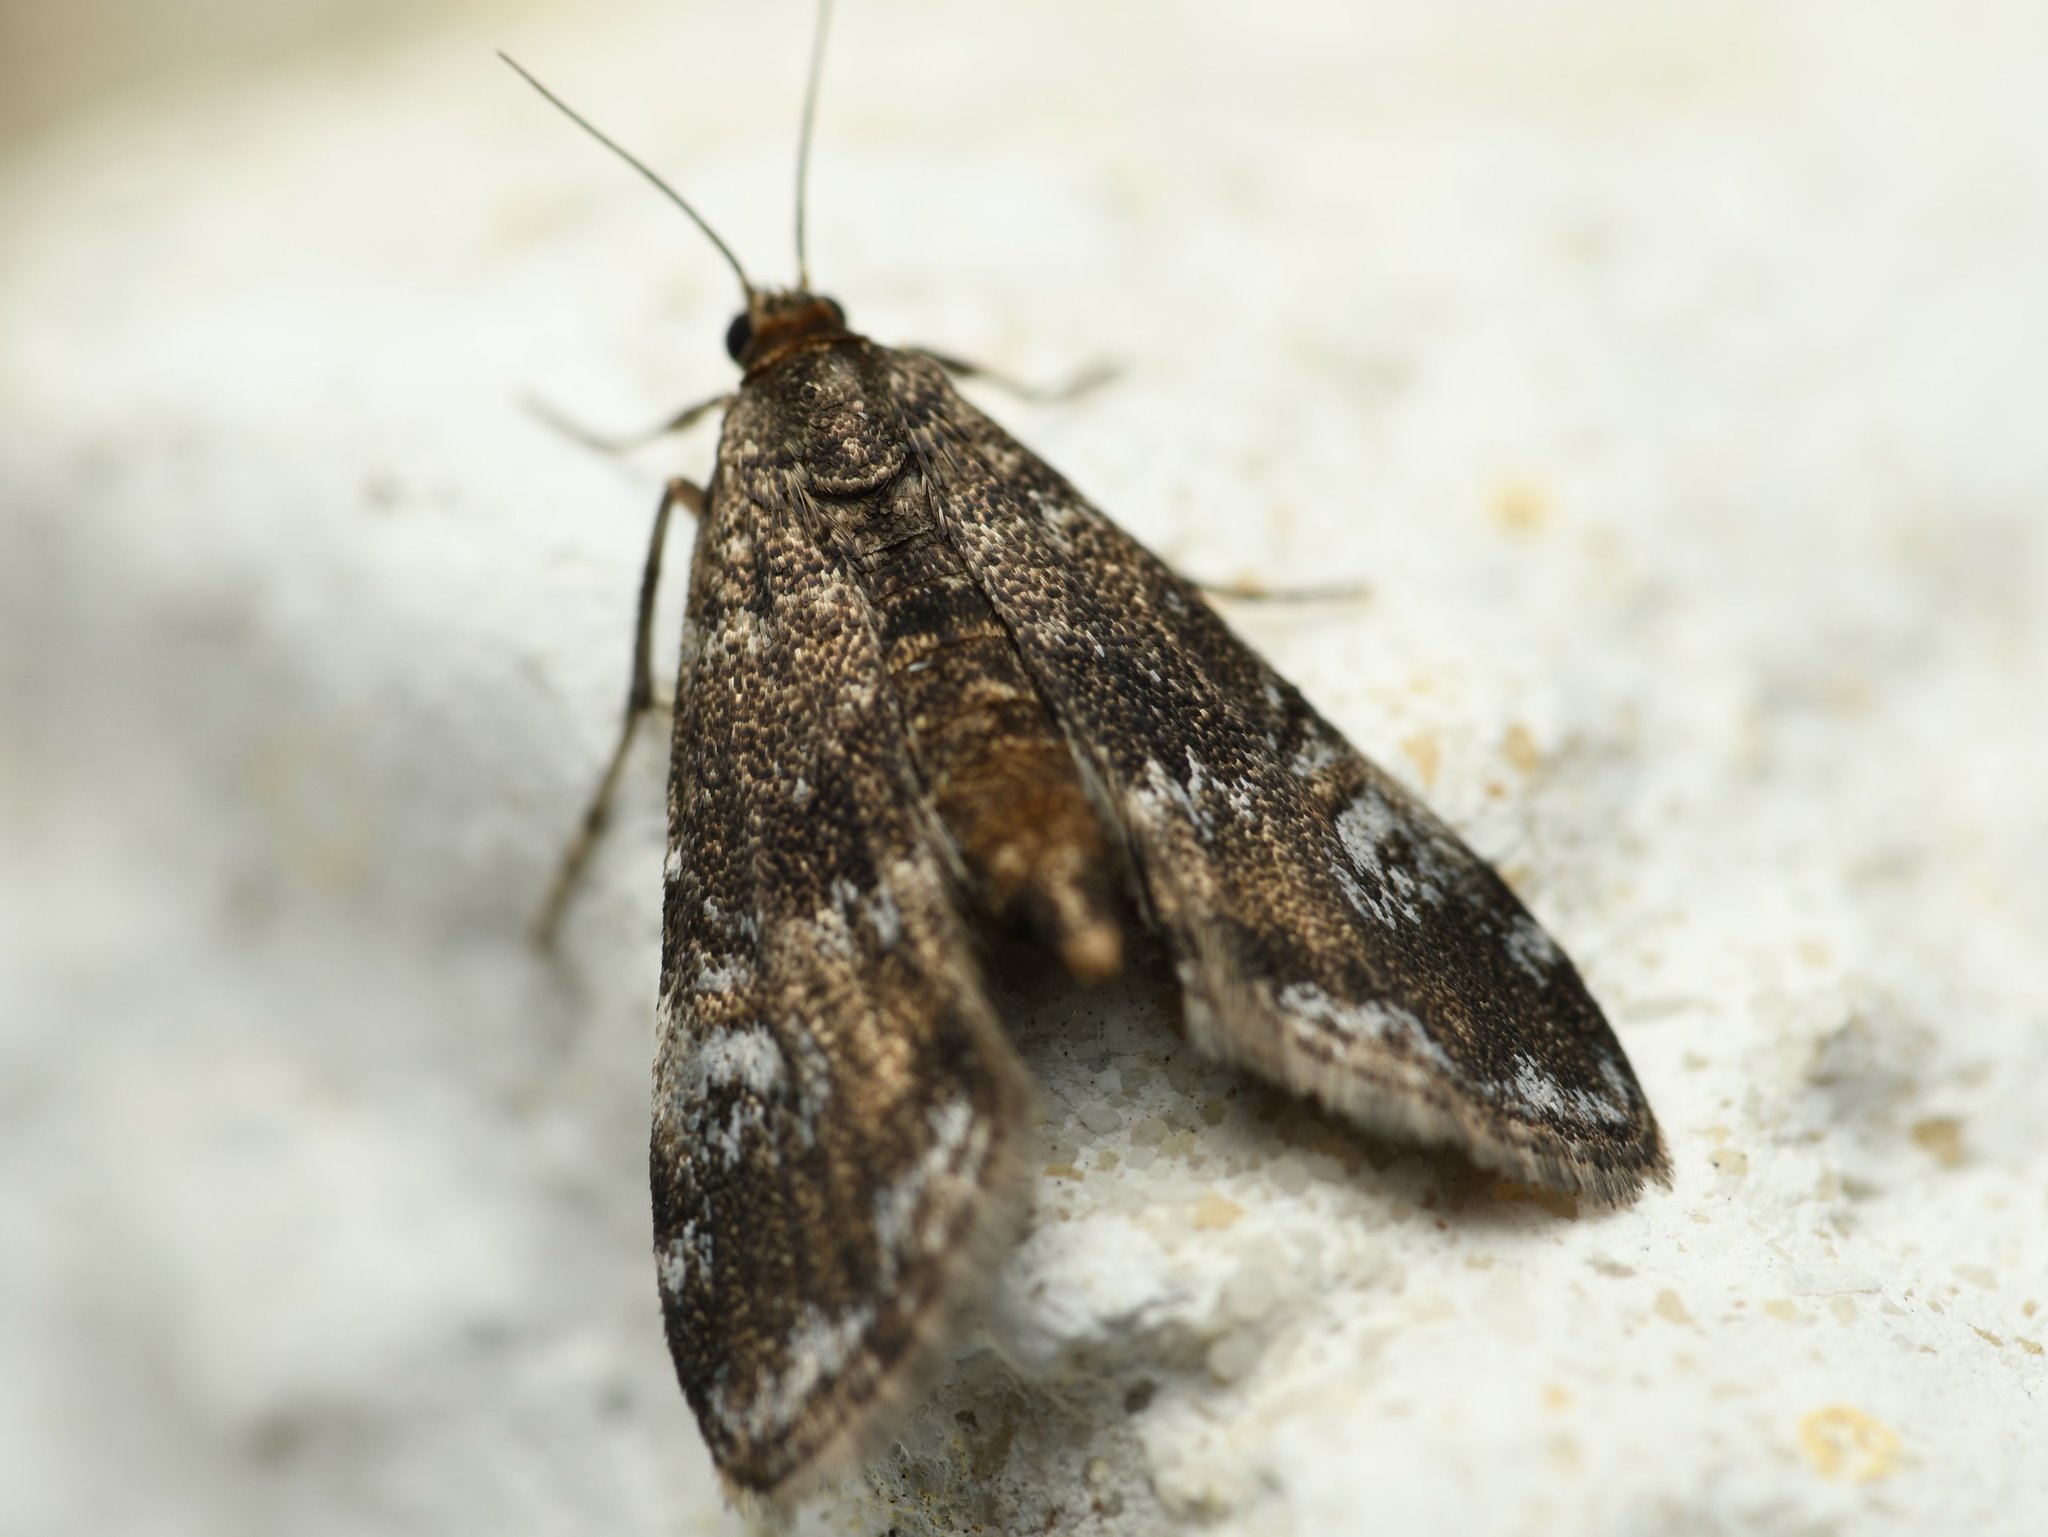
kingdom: Animalia
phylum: Arthropoda
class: Insecta
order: Lepidoptera
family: Crambidae
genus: Elophila
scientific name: Elophila obliteralis
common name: Waterlily leafcutter moth
